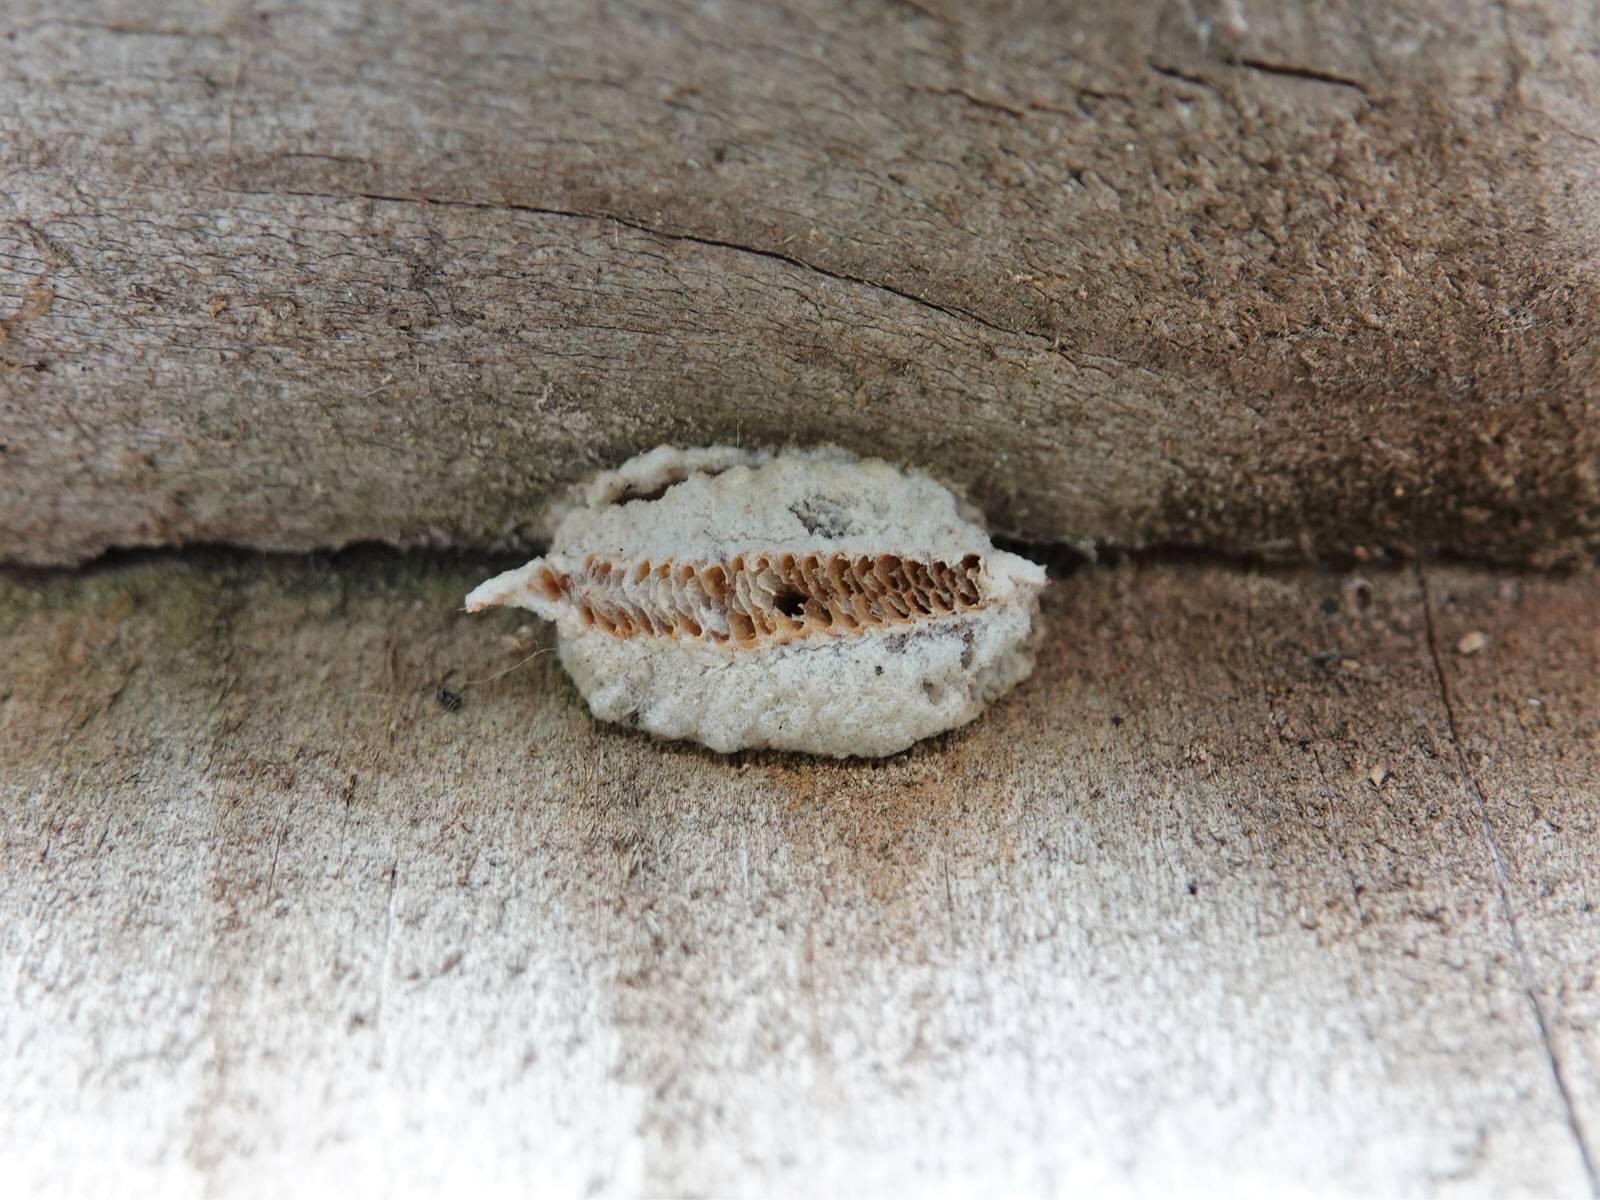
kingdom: Animalia
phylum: Arthropoda
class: Insecta
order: Mantodea
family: Miomantidae
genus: Miomantis
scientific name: Miomantis caffra
